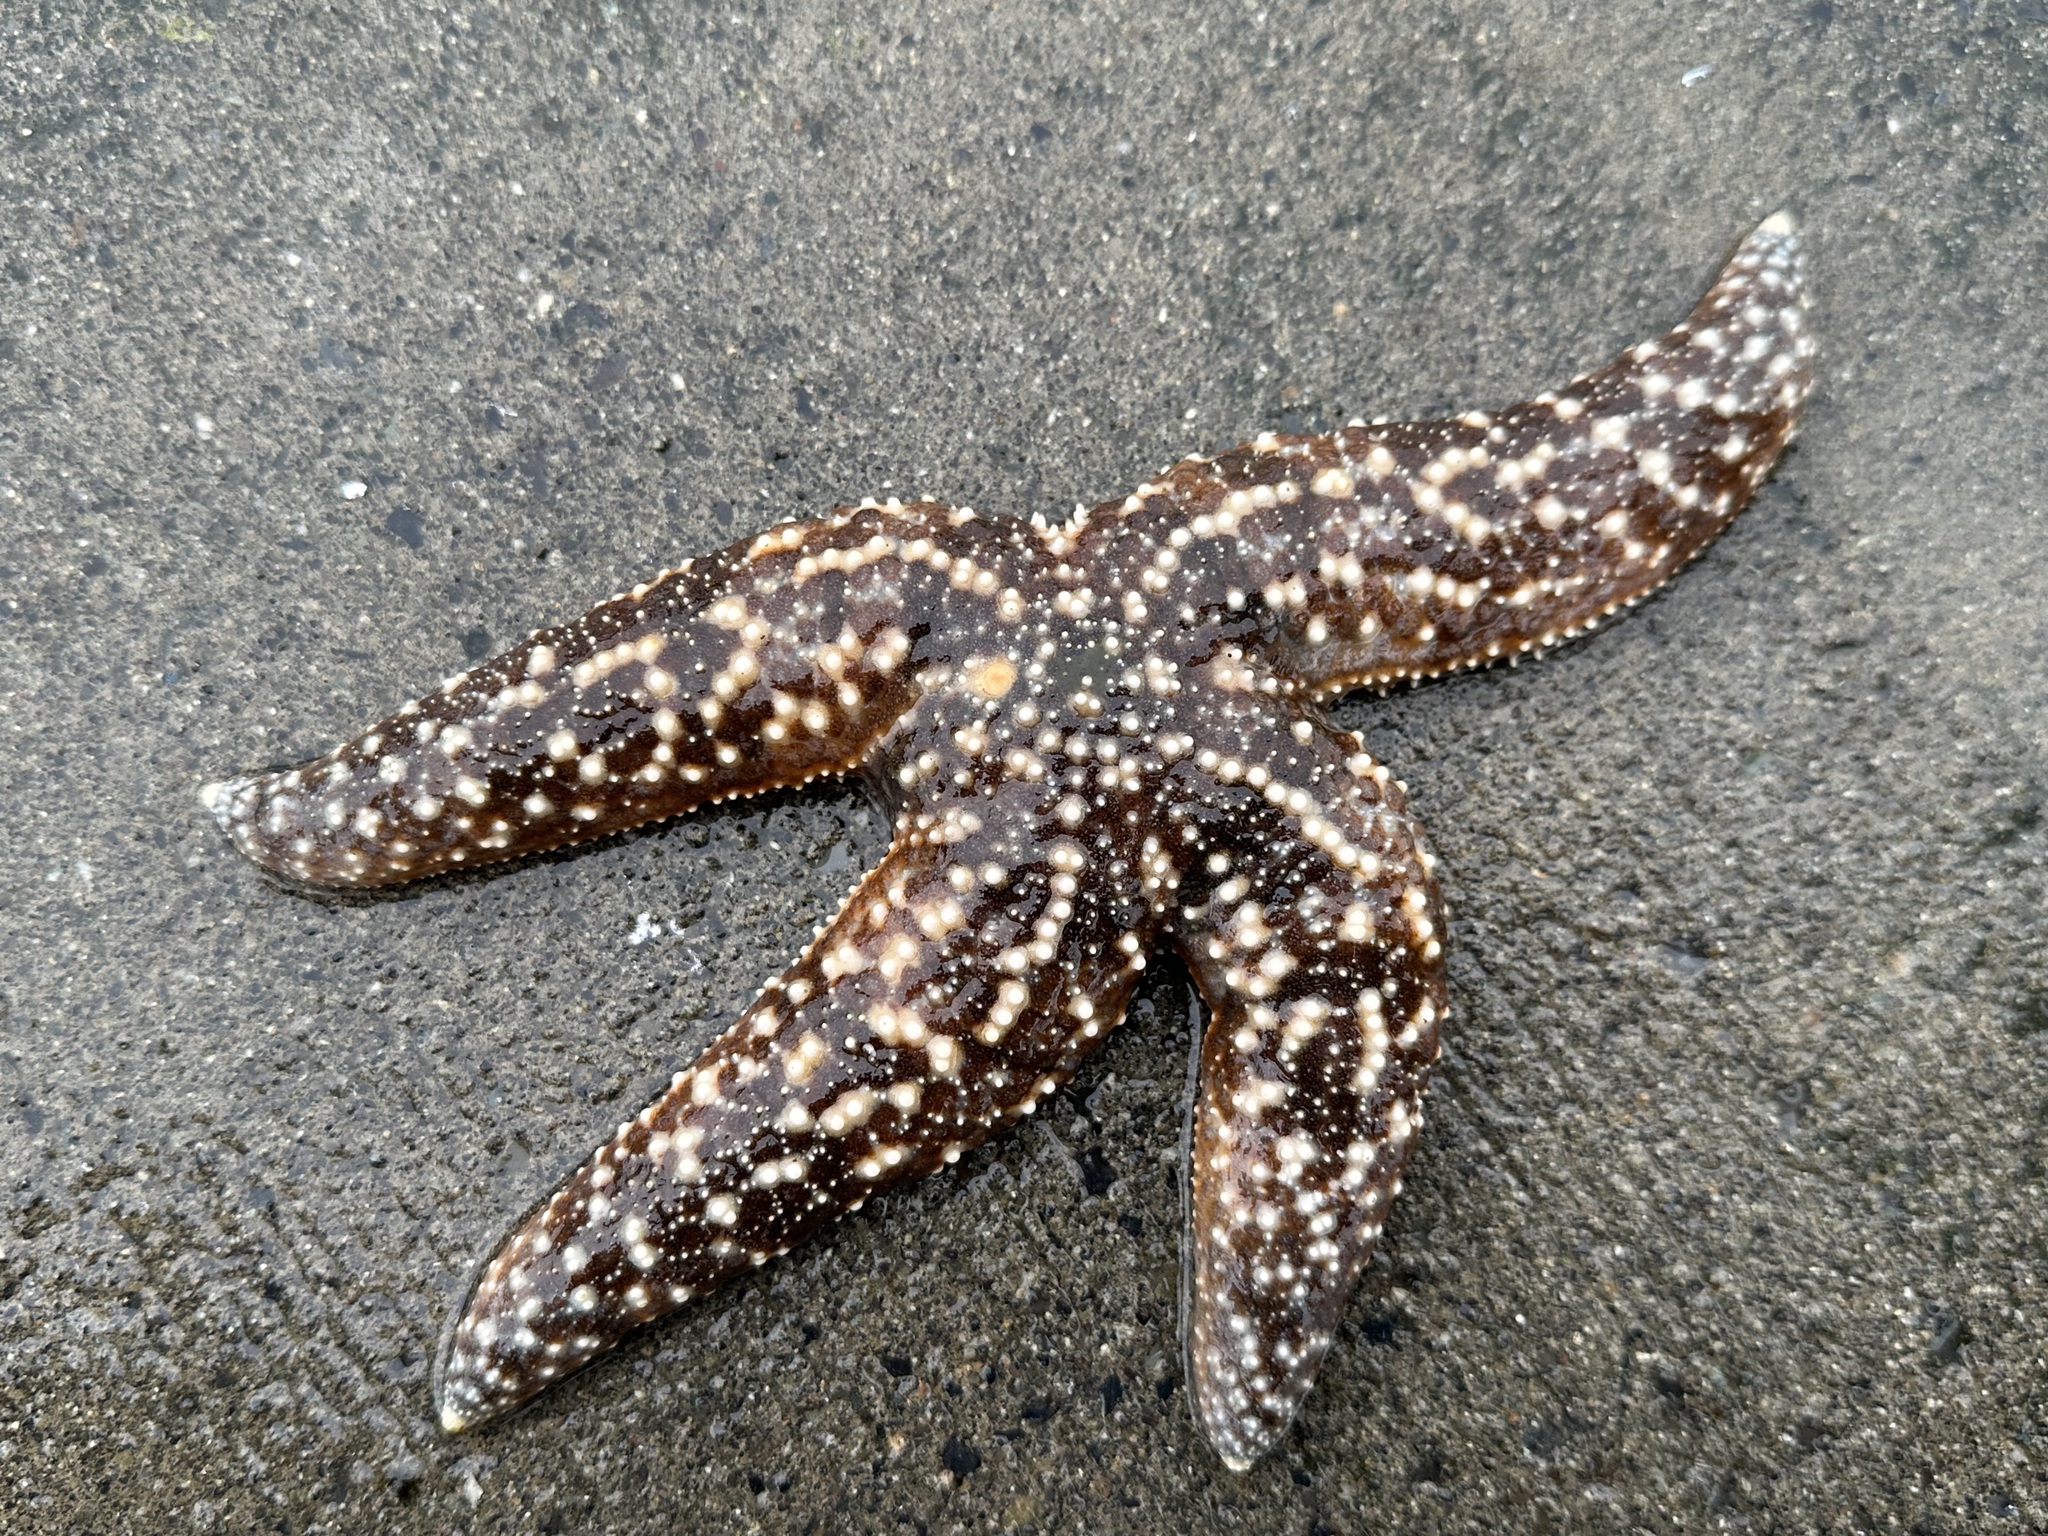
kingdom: Animalia
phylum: Echinodermata
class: Asteroidea
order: Forcipulatida
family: Asteriidae
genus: Evasterias
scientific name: Evasterias troschelii
